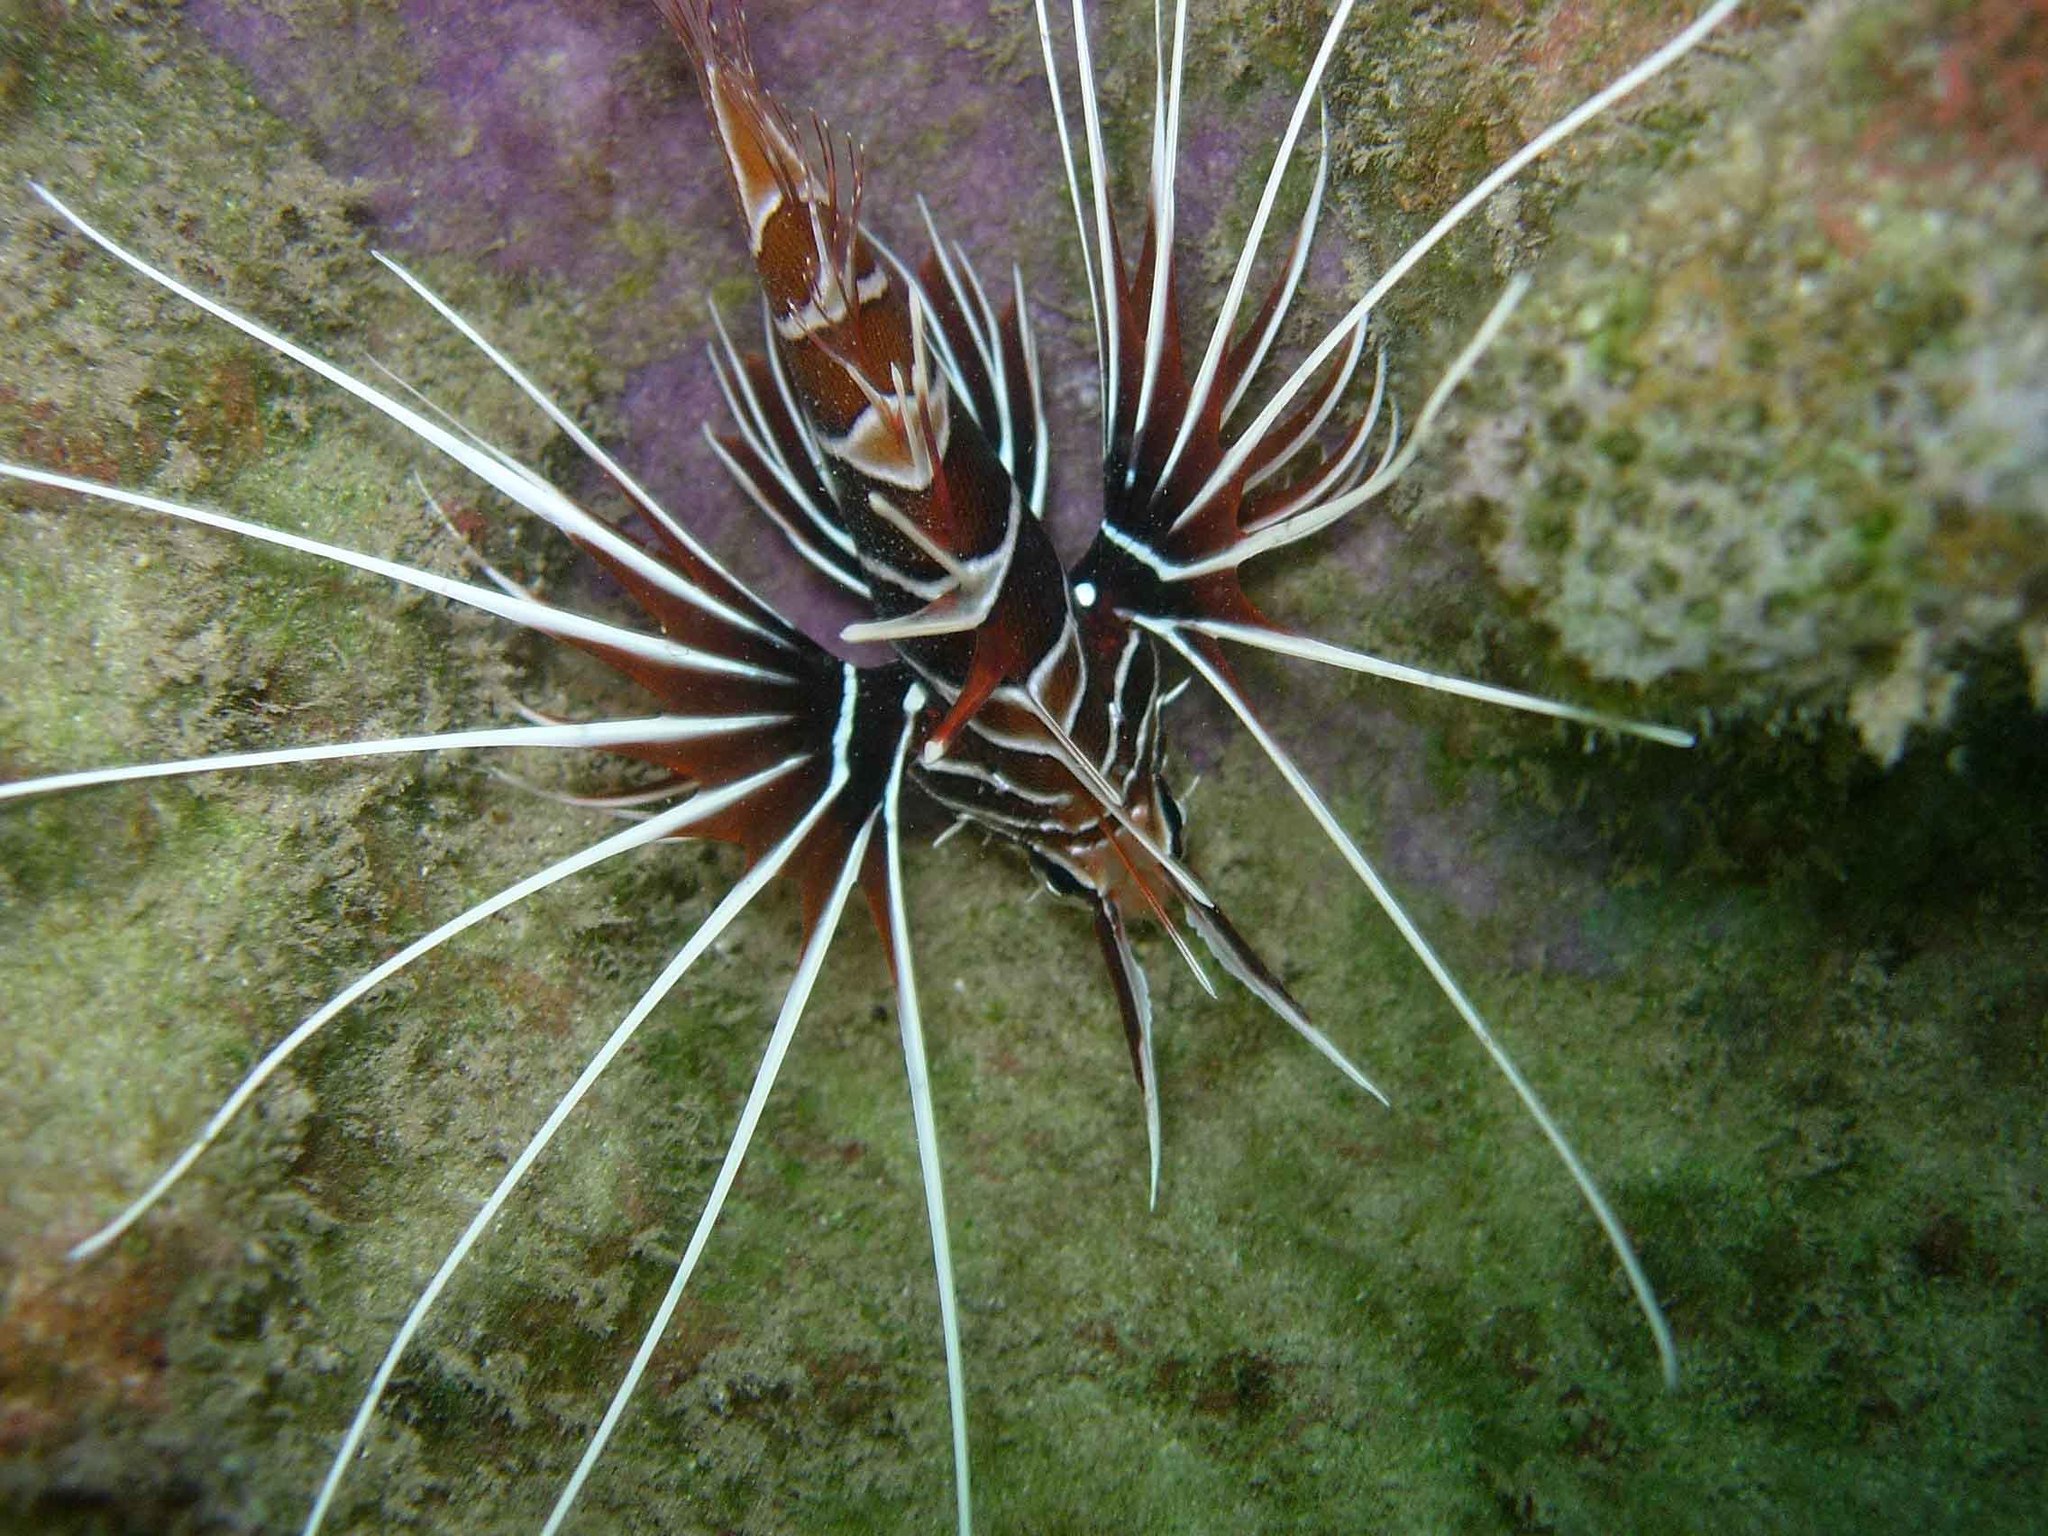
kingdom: Animalia
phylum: Chordata
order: Scorpaeniformes
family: Scorpaenidae
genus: Pterois
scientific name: Pterois radiata
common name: Radial firefish
